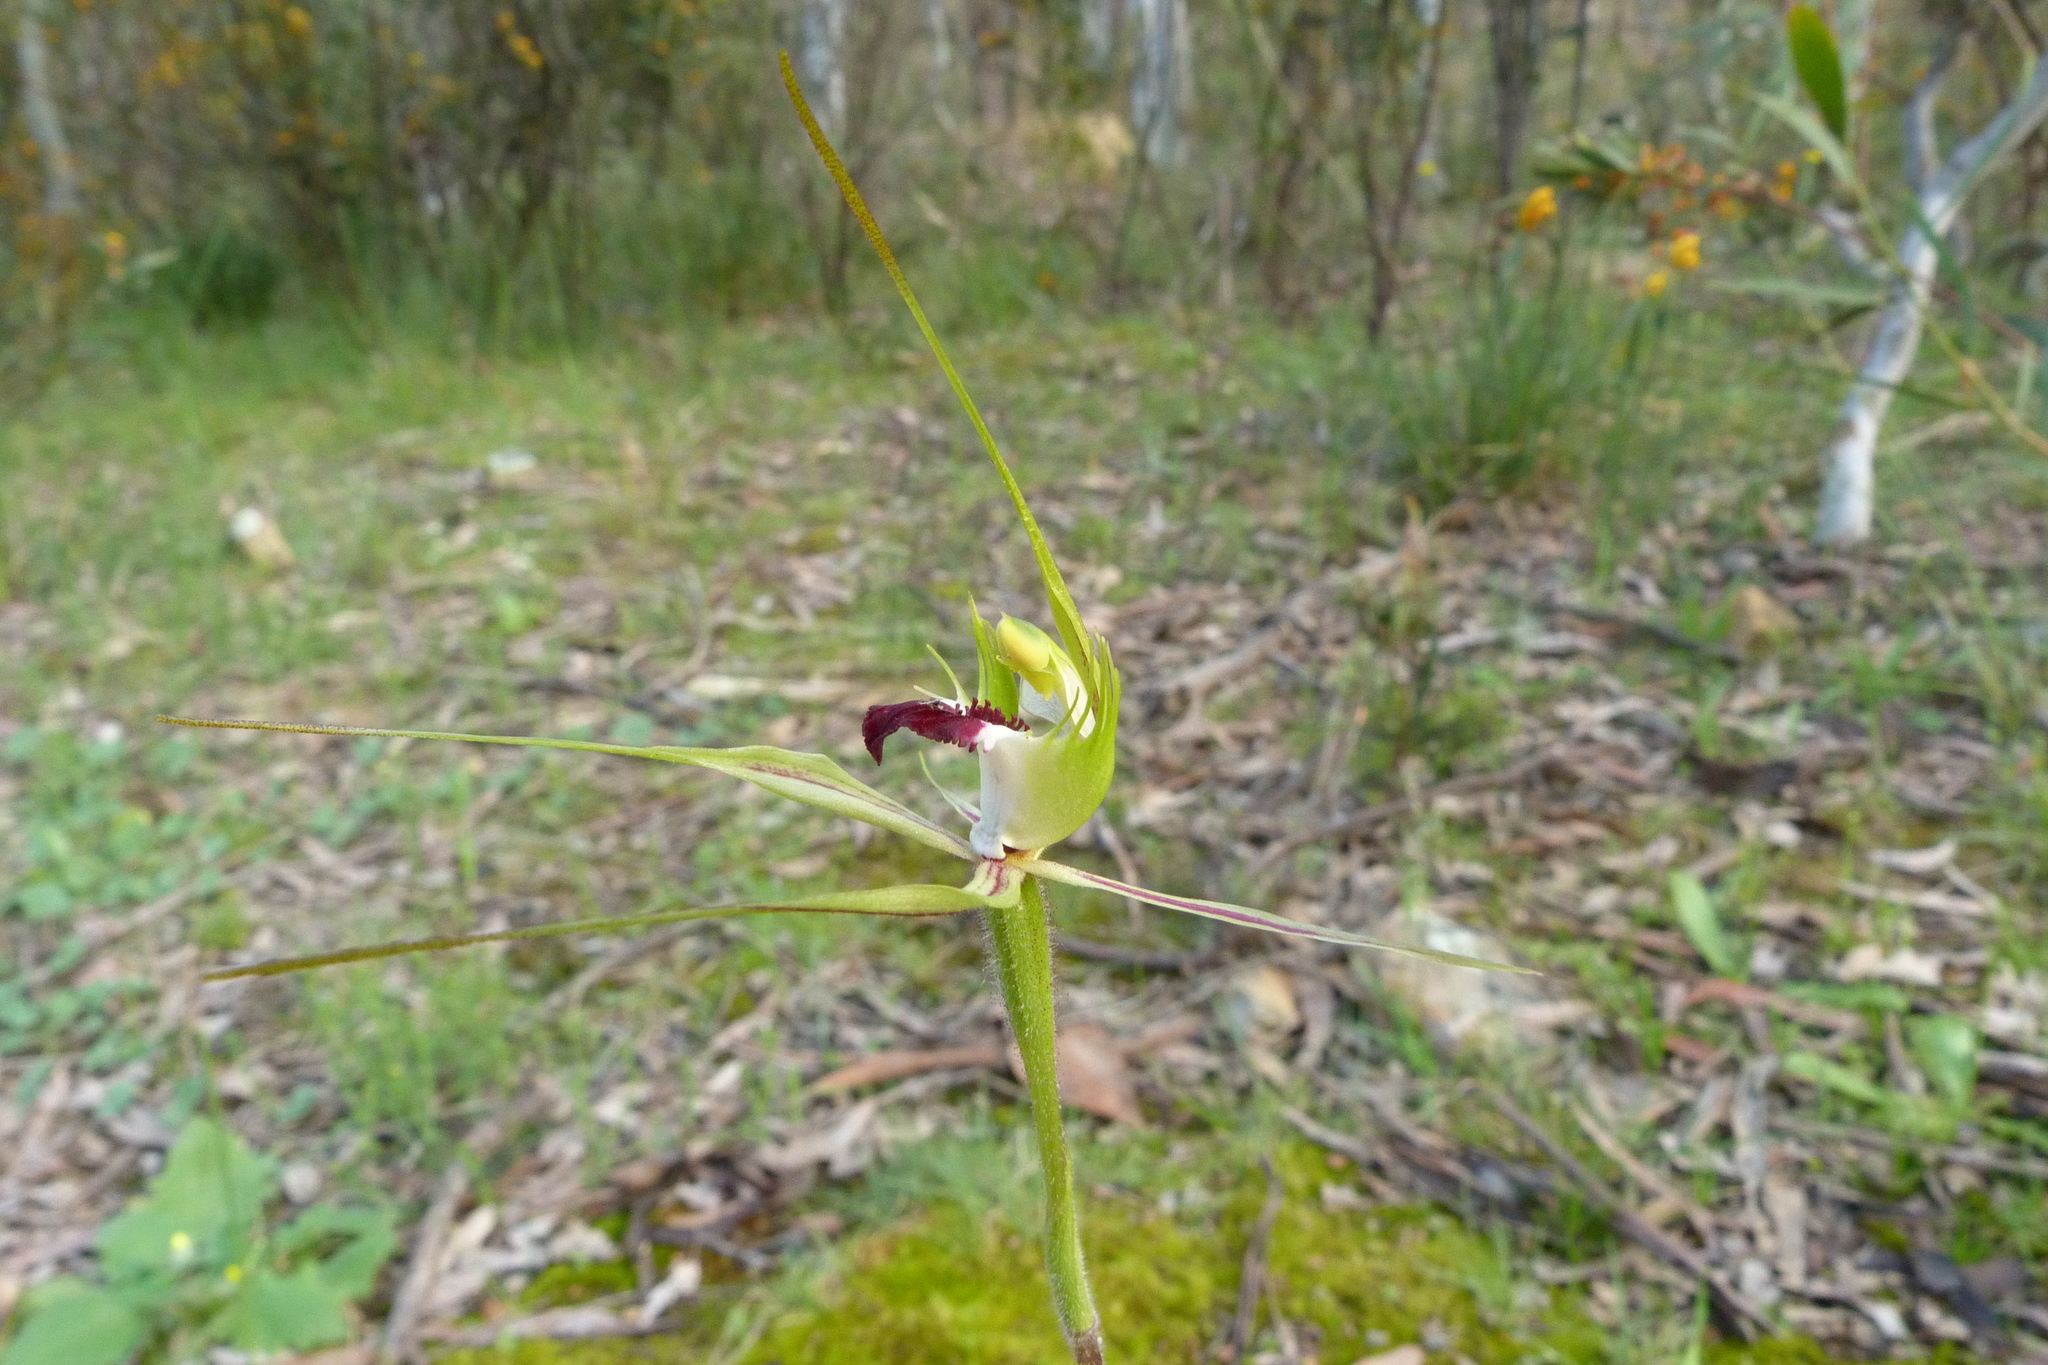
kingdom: Plantae
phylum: Tracheophyta
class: Liliopsida
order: Asparagales
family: Orchidaceae
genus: Caladenia
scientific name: Caladenia atrovespa
